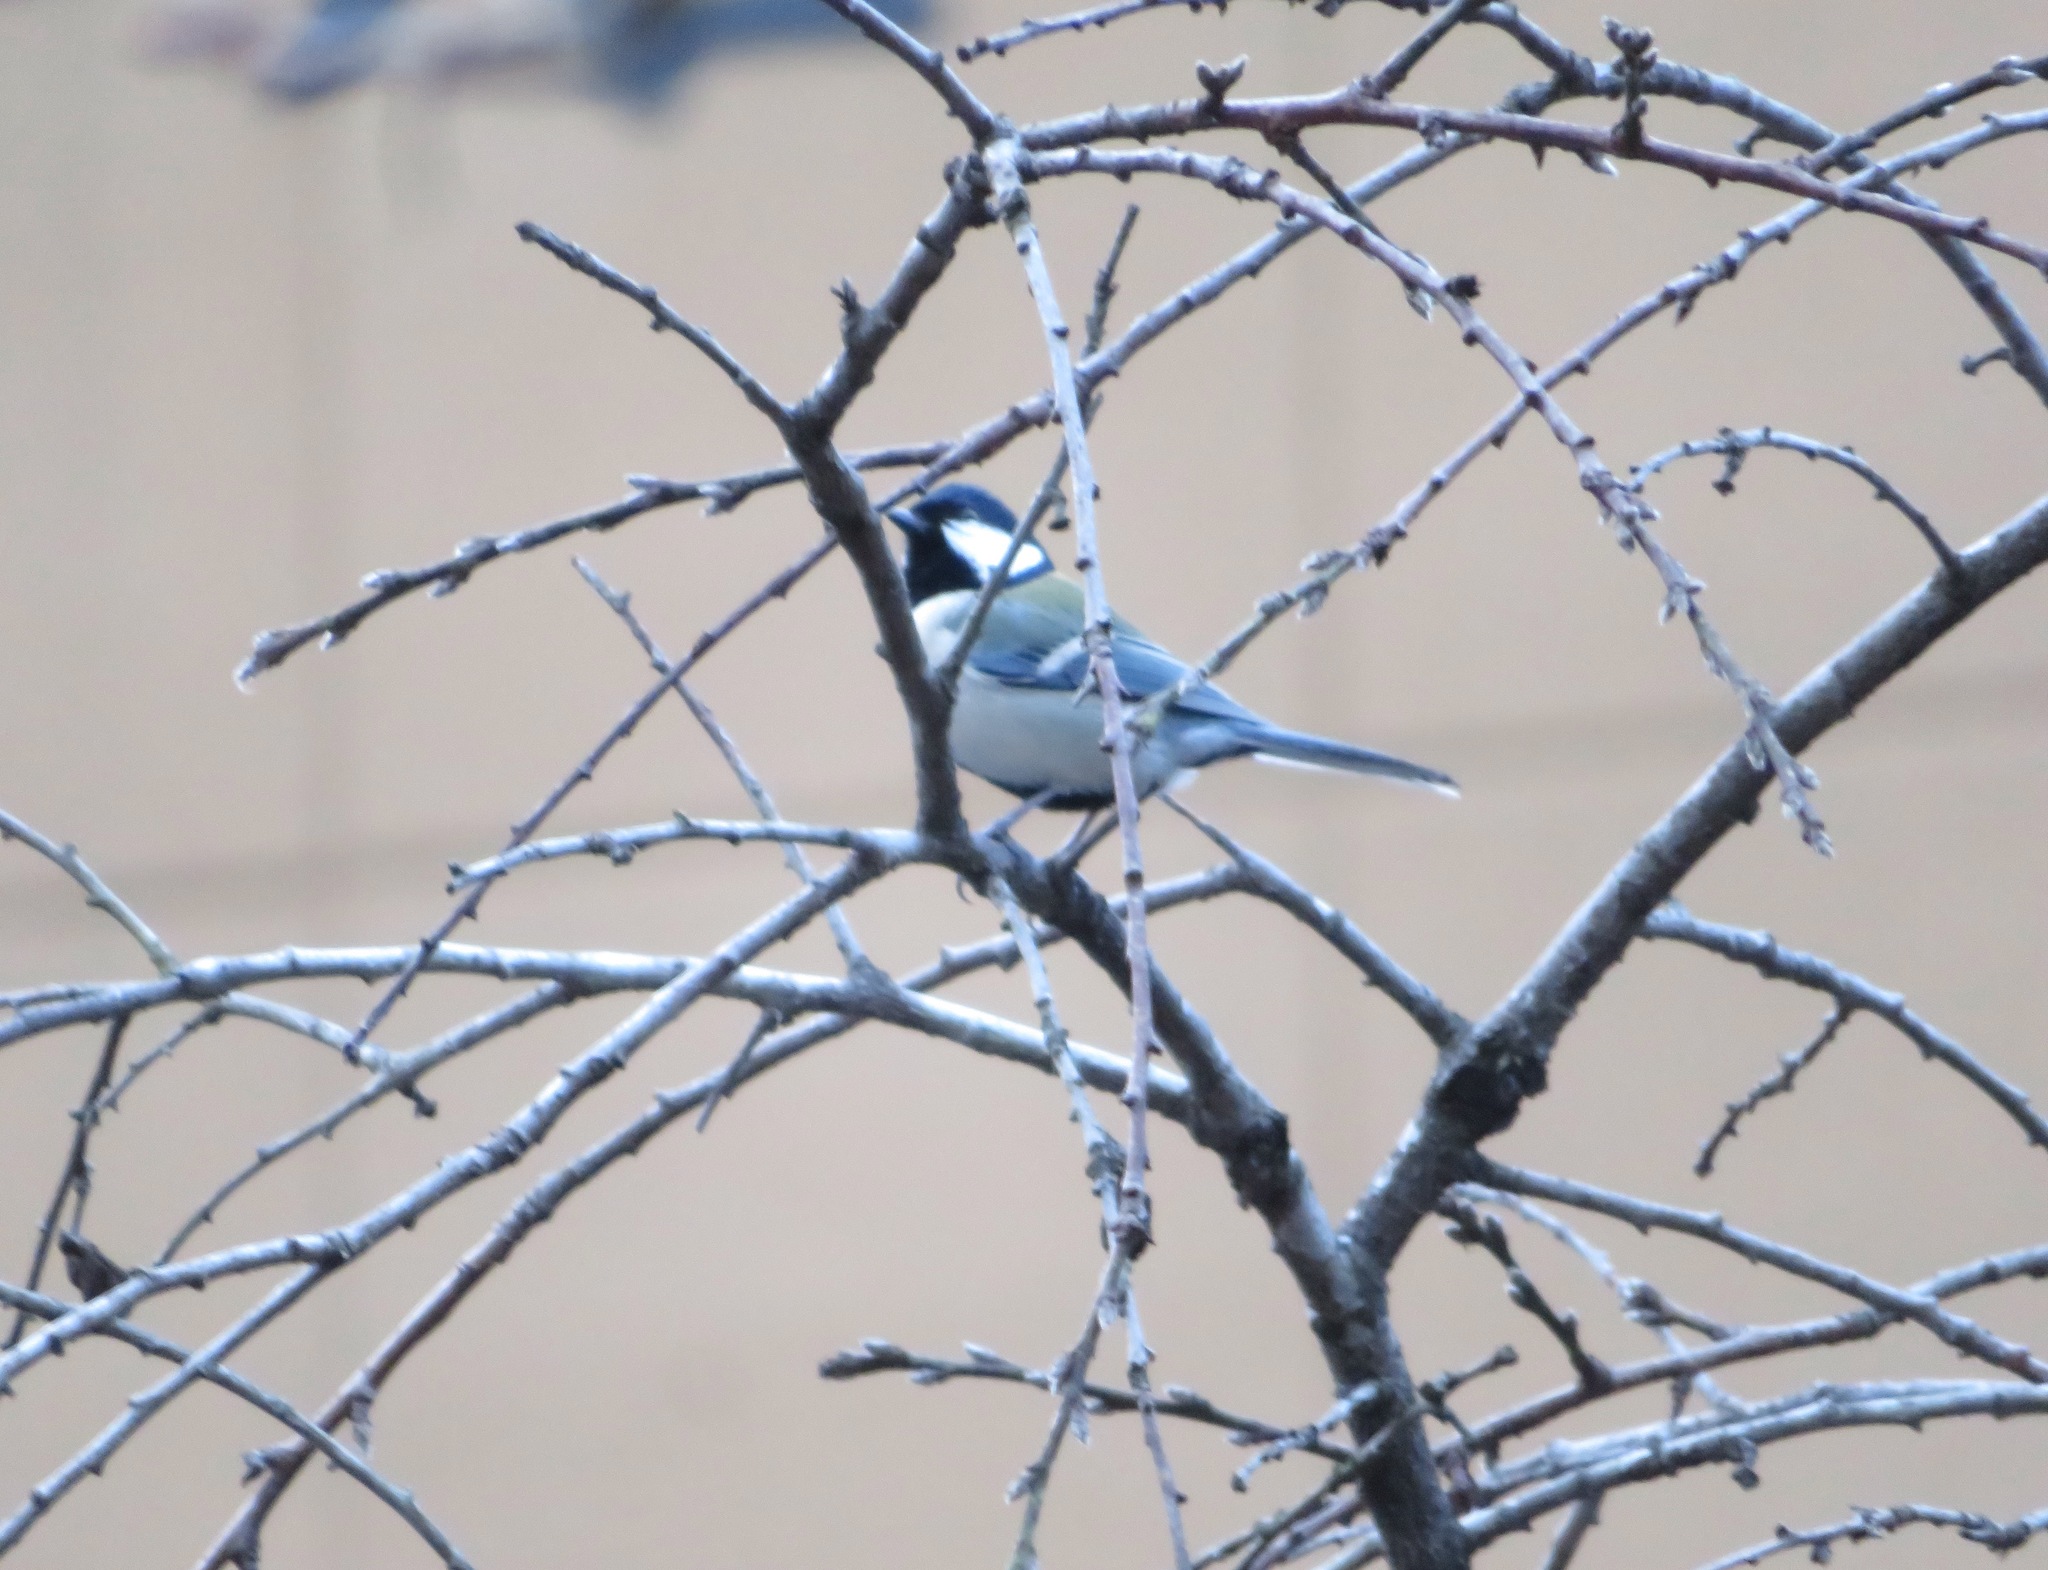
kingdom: Animalia
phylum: Chordata
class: Aves
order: Passeriformes
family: Paridae
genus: Parus
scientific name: Parus minor
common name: Japanese tit
